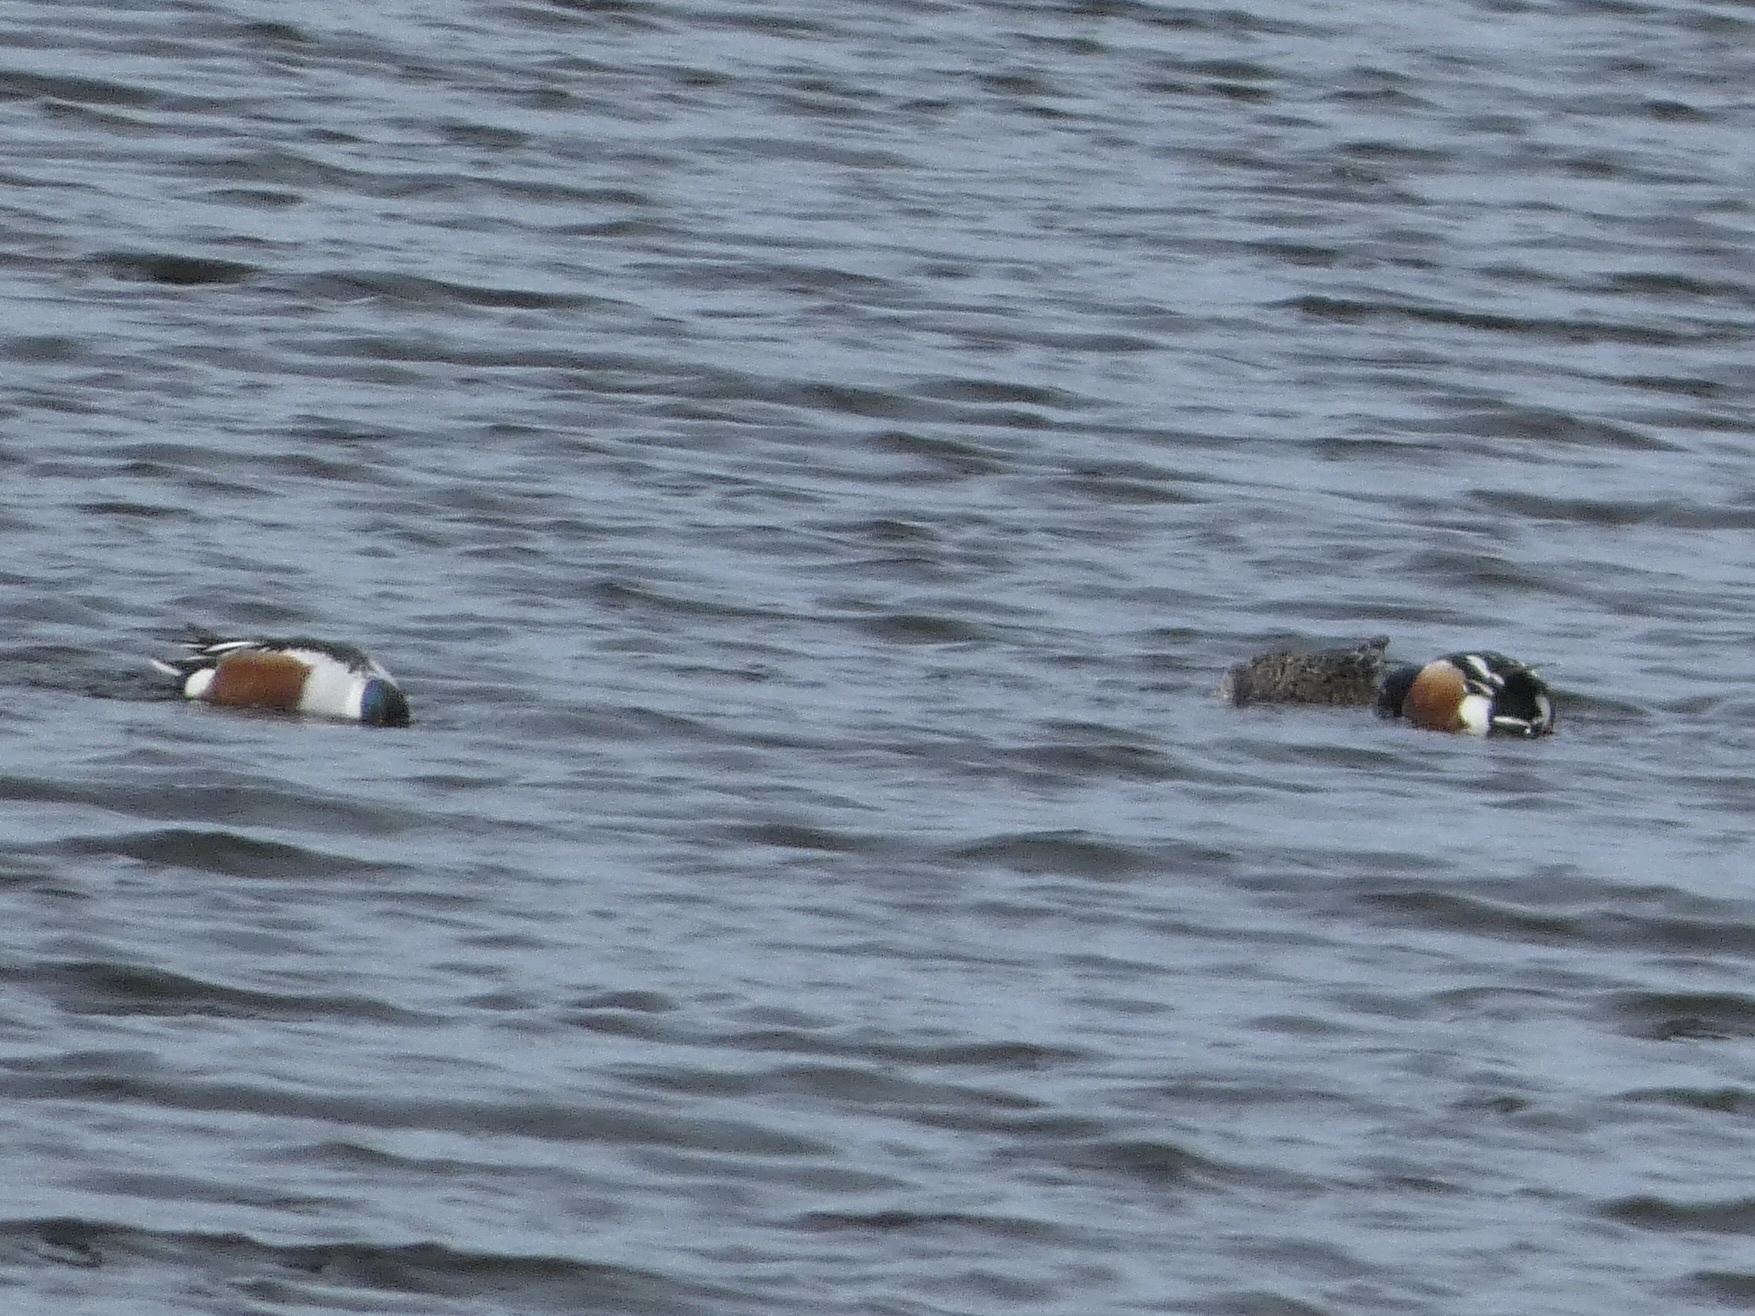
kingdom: Animalia
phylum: Chordata
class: Aves
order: Anseriformes
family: Anatidae
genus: Spatula
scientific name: Spatula clypeata
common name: Northern shoveler
